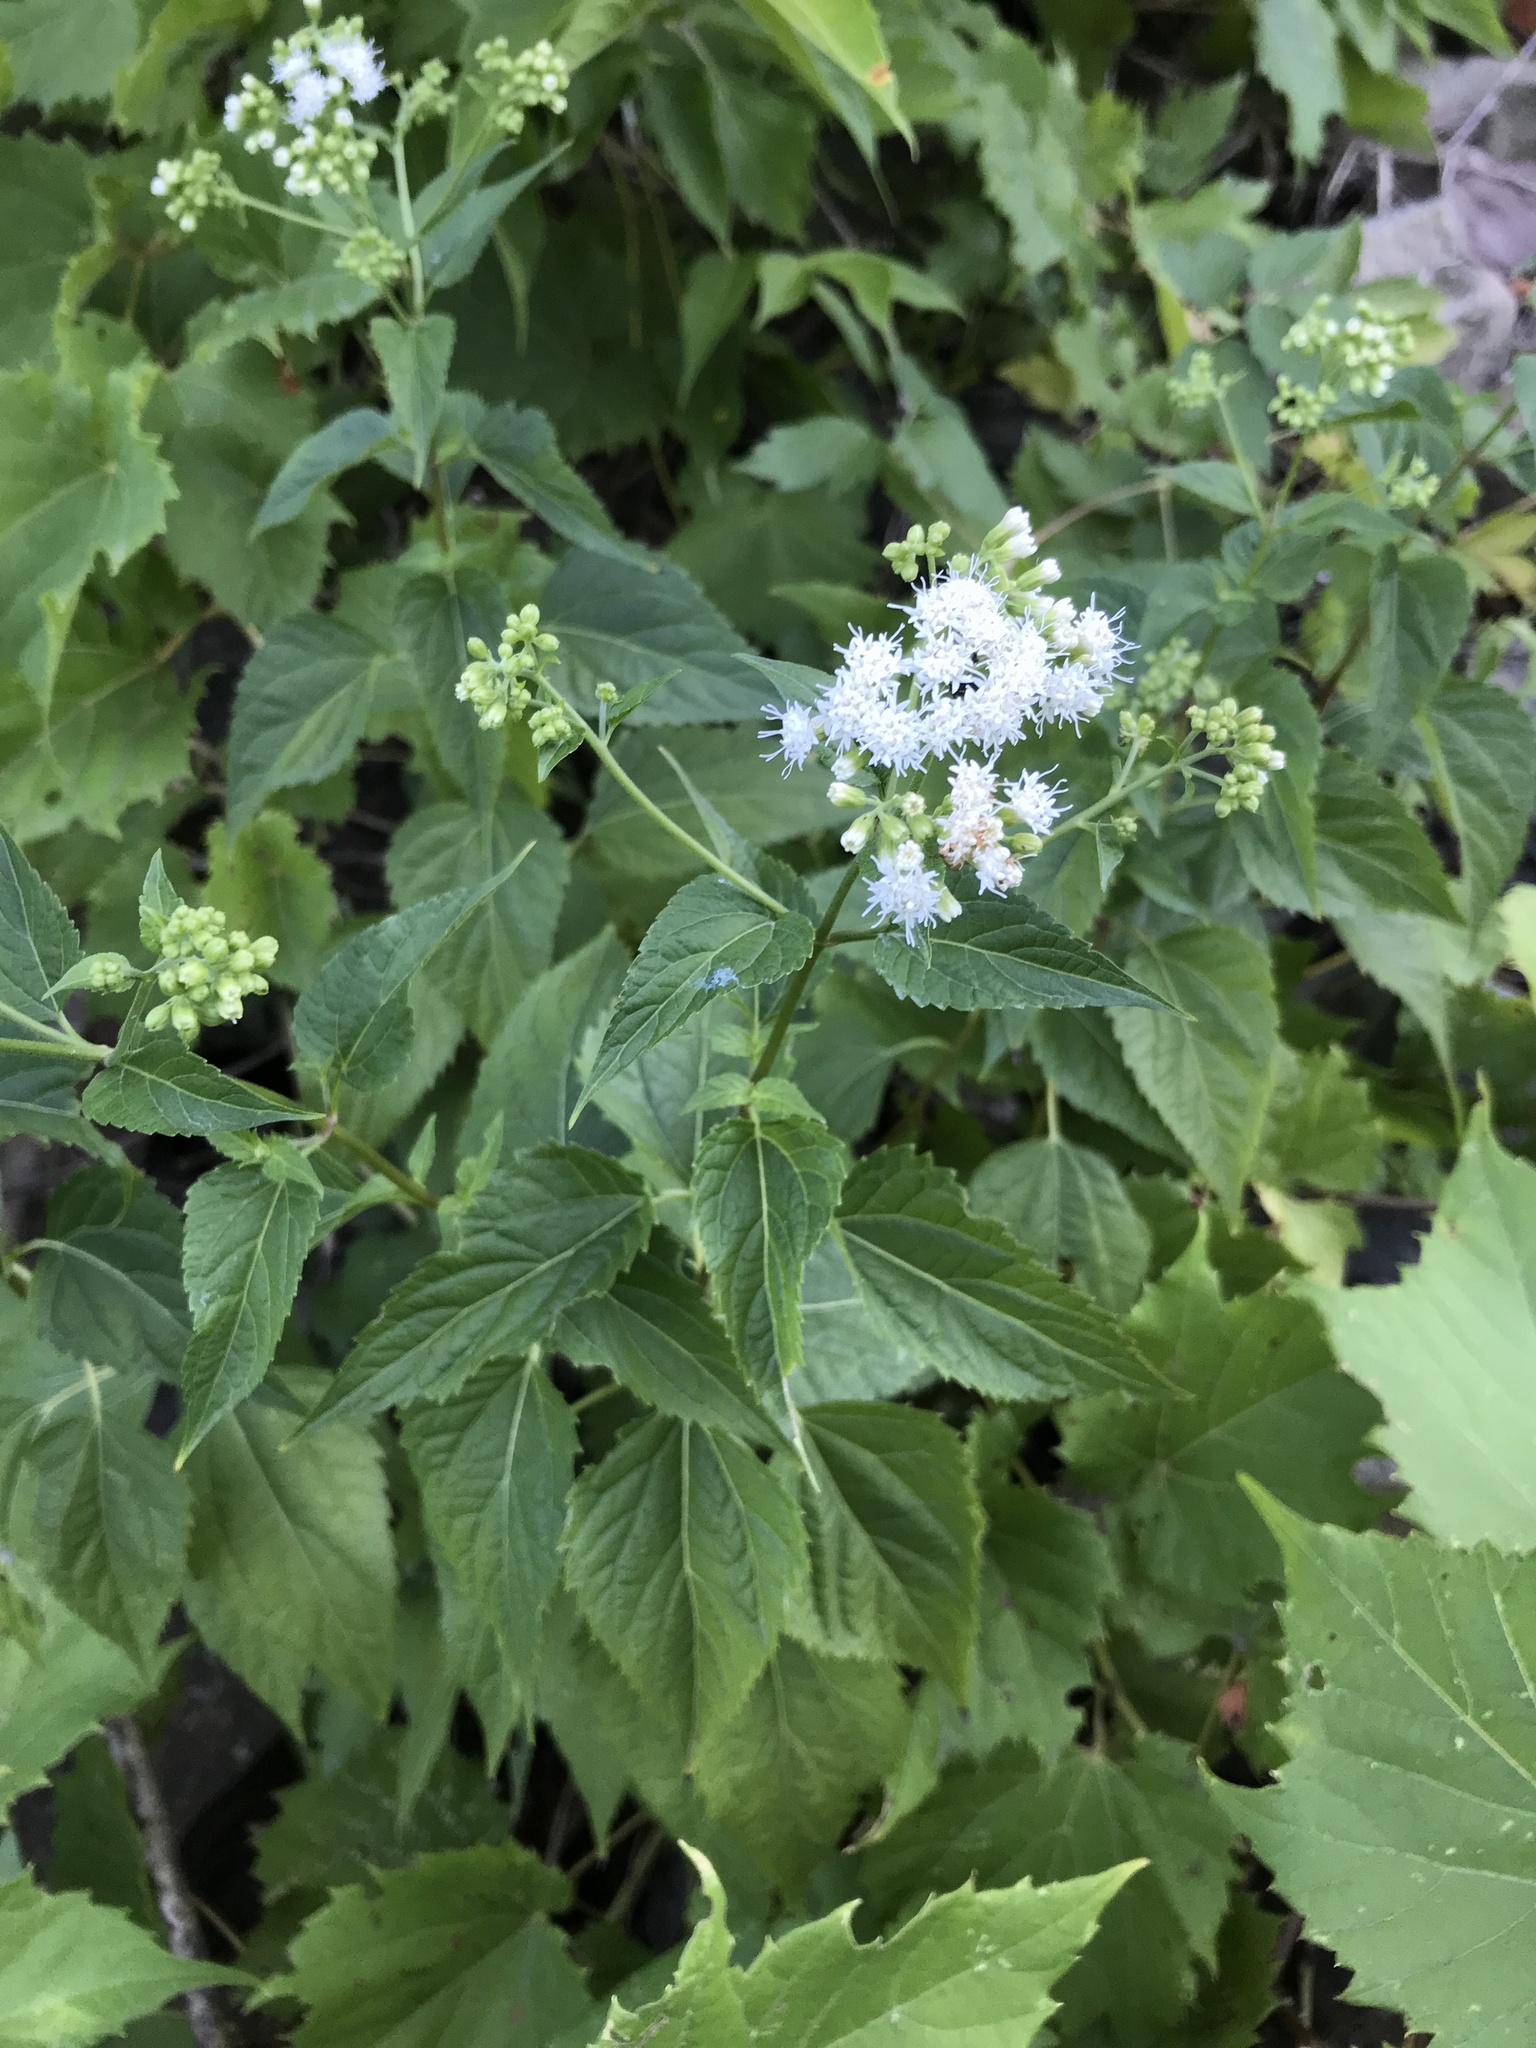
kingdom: Plantae
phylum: Tracheophyta
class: Magnoliopsida
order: Asterales
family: Asteraceae
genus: Ageratina
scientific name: Ageratina altissima
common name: White snakeroot
